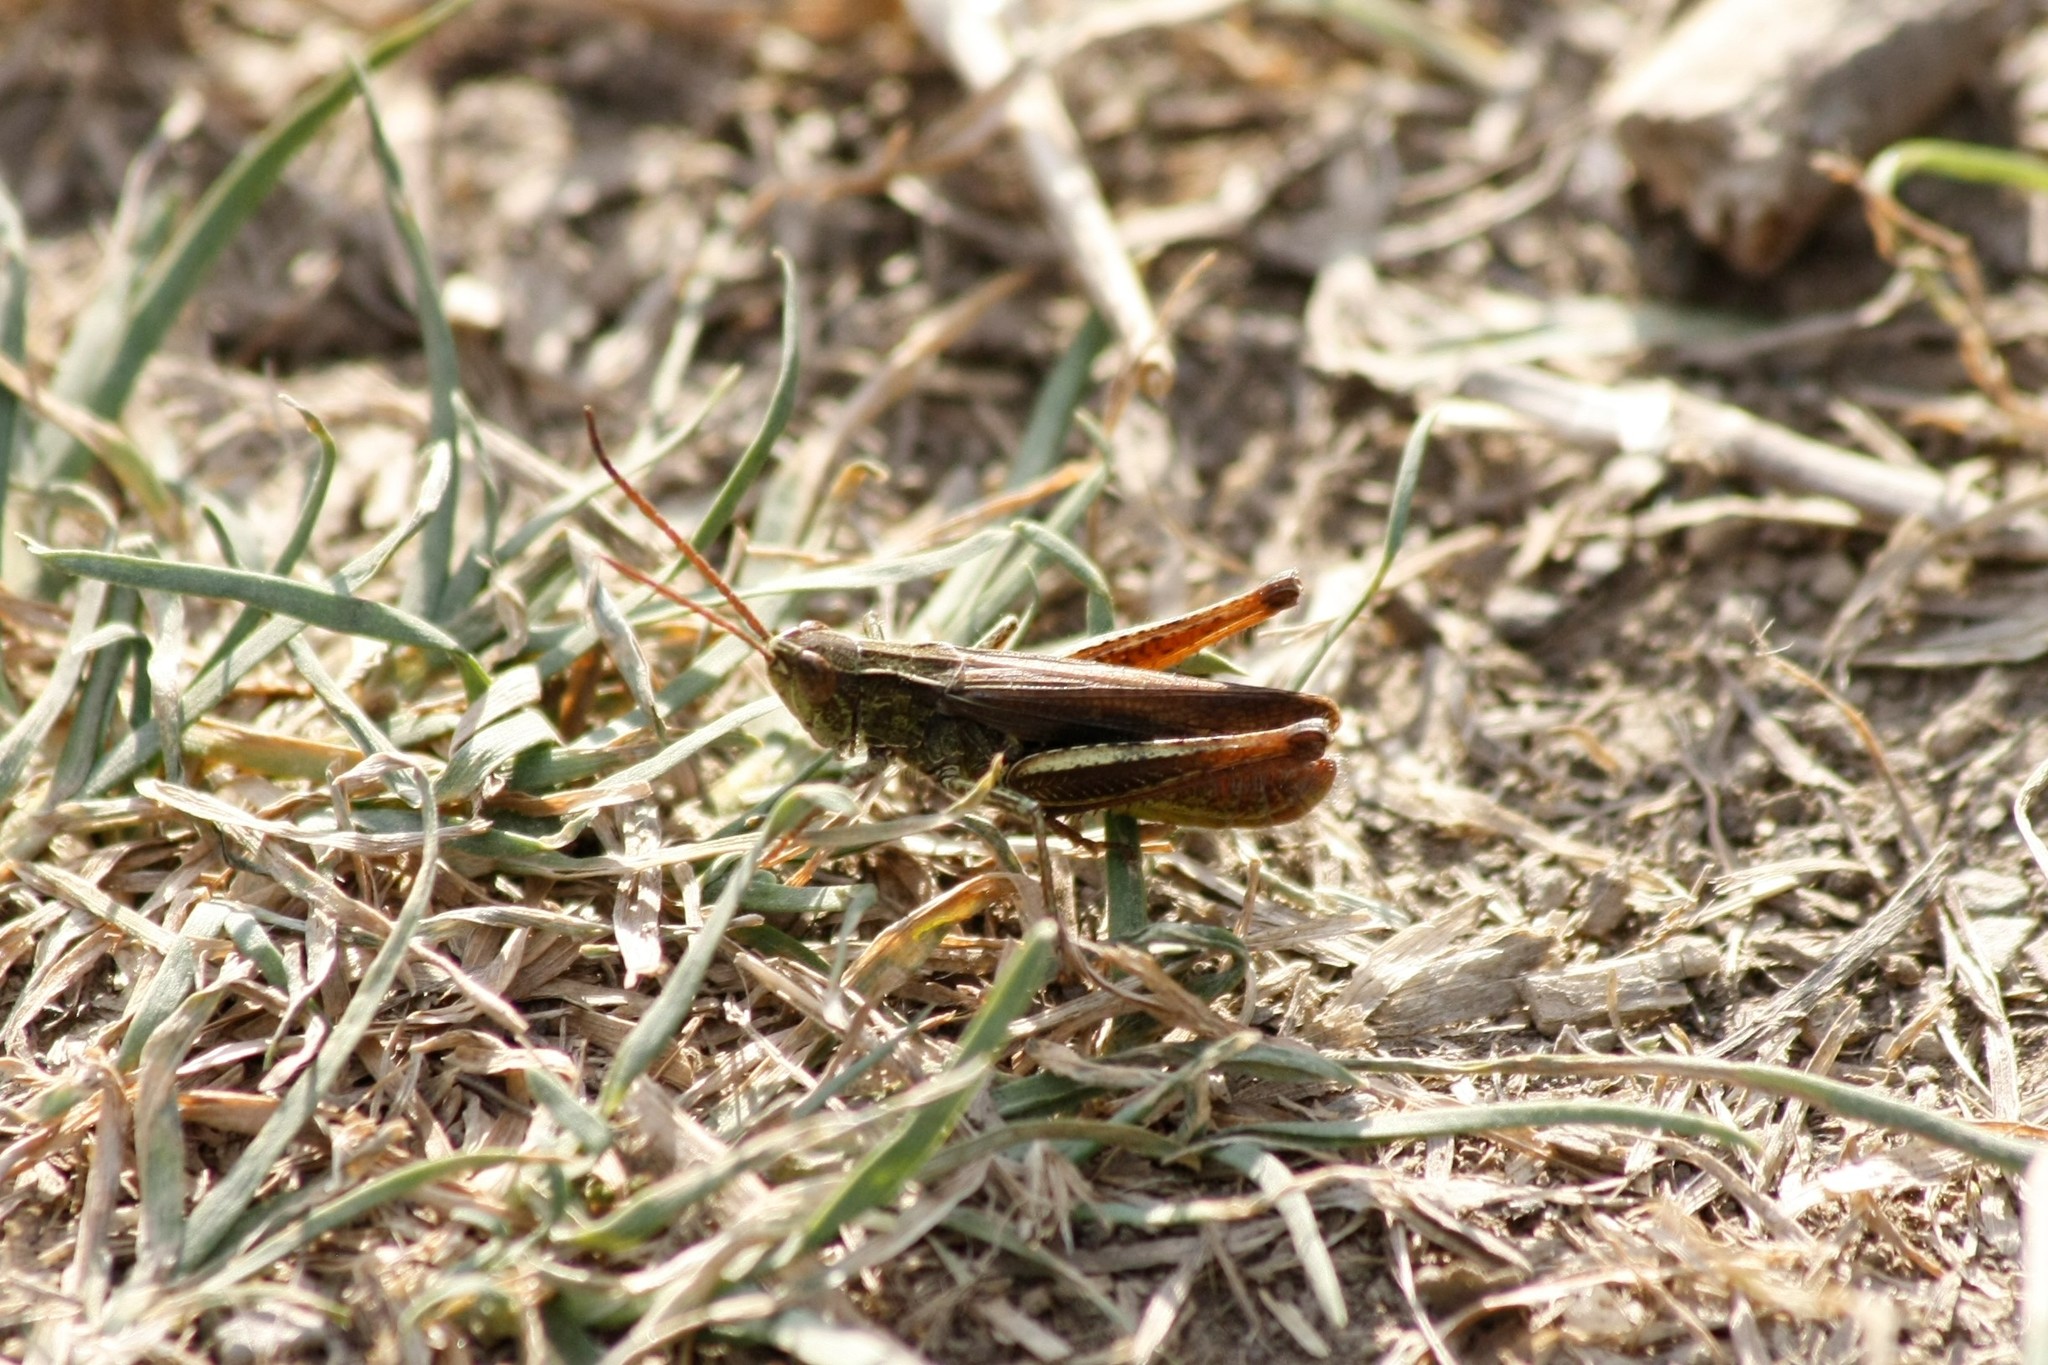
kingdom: Animalia
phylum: Arthropoda
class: Insecta
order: Orthoptera
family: Acrididae
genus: Chorthippus
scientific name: Chorthippus dorsatus
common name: Steppe grasshopper
